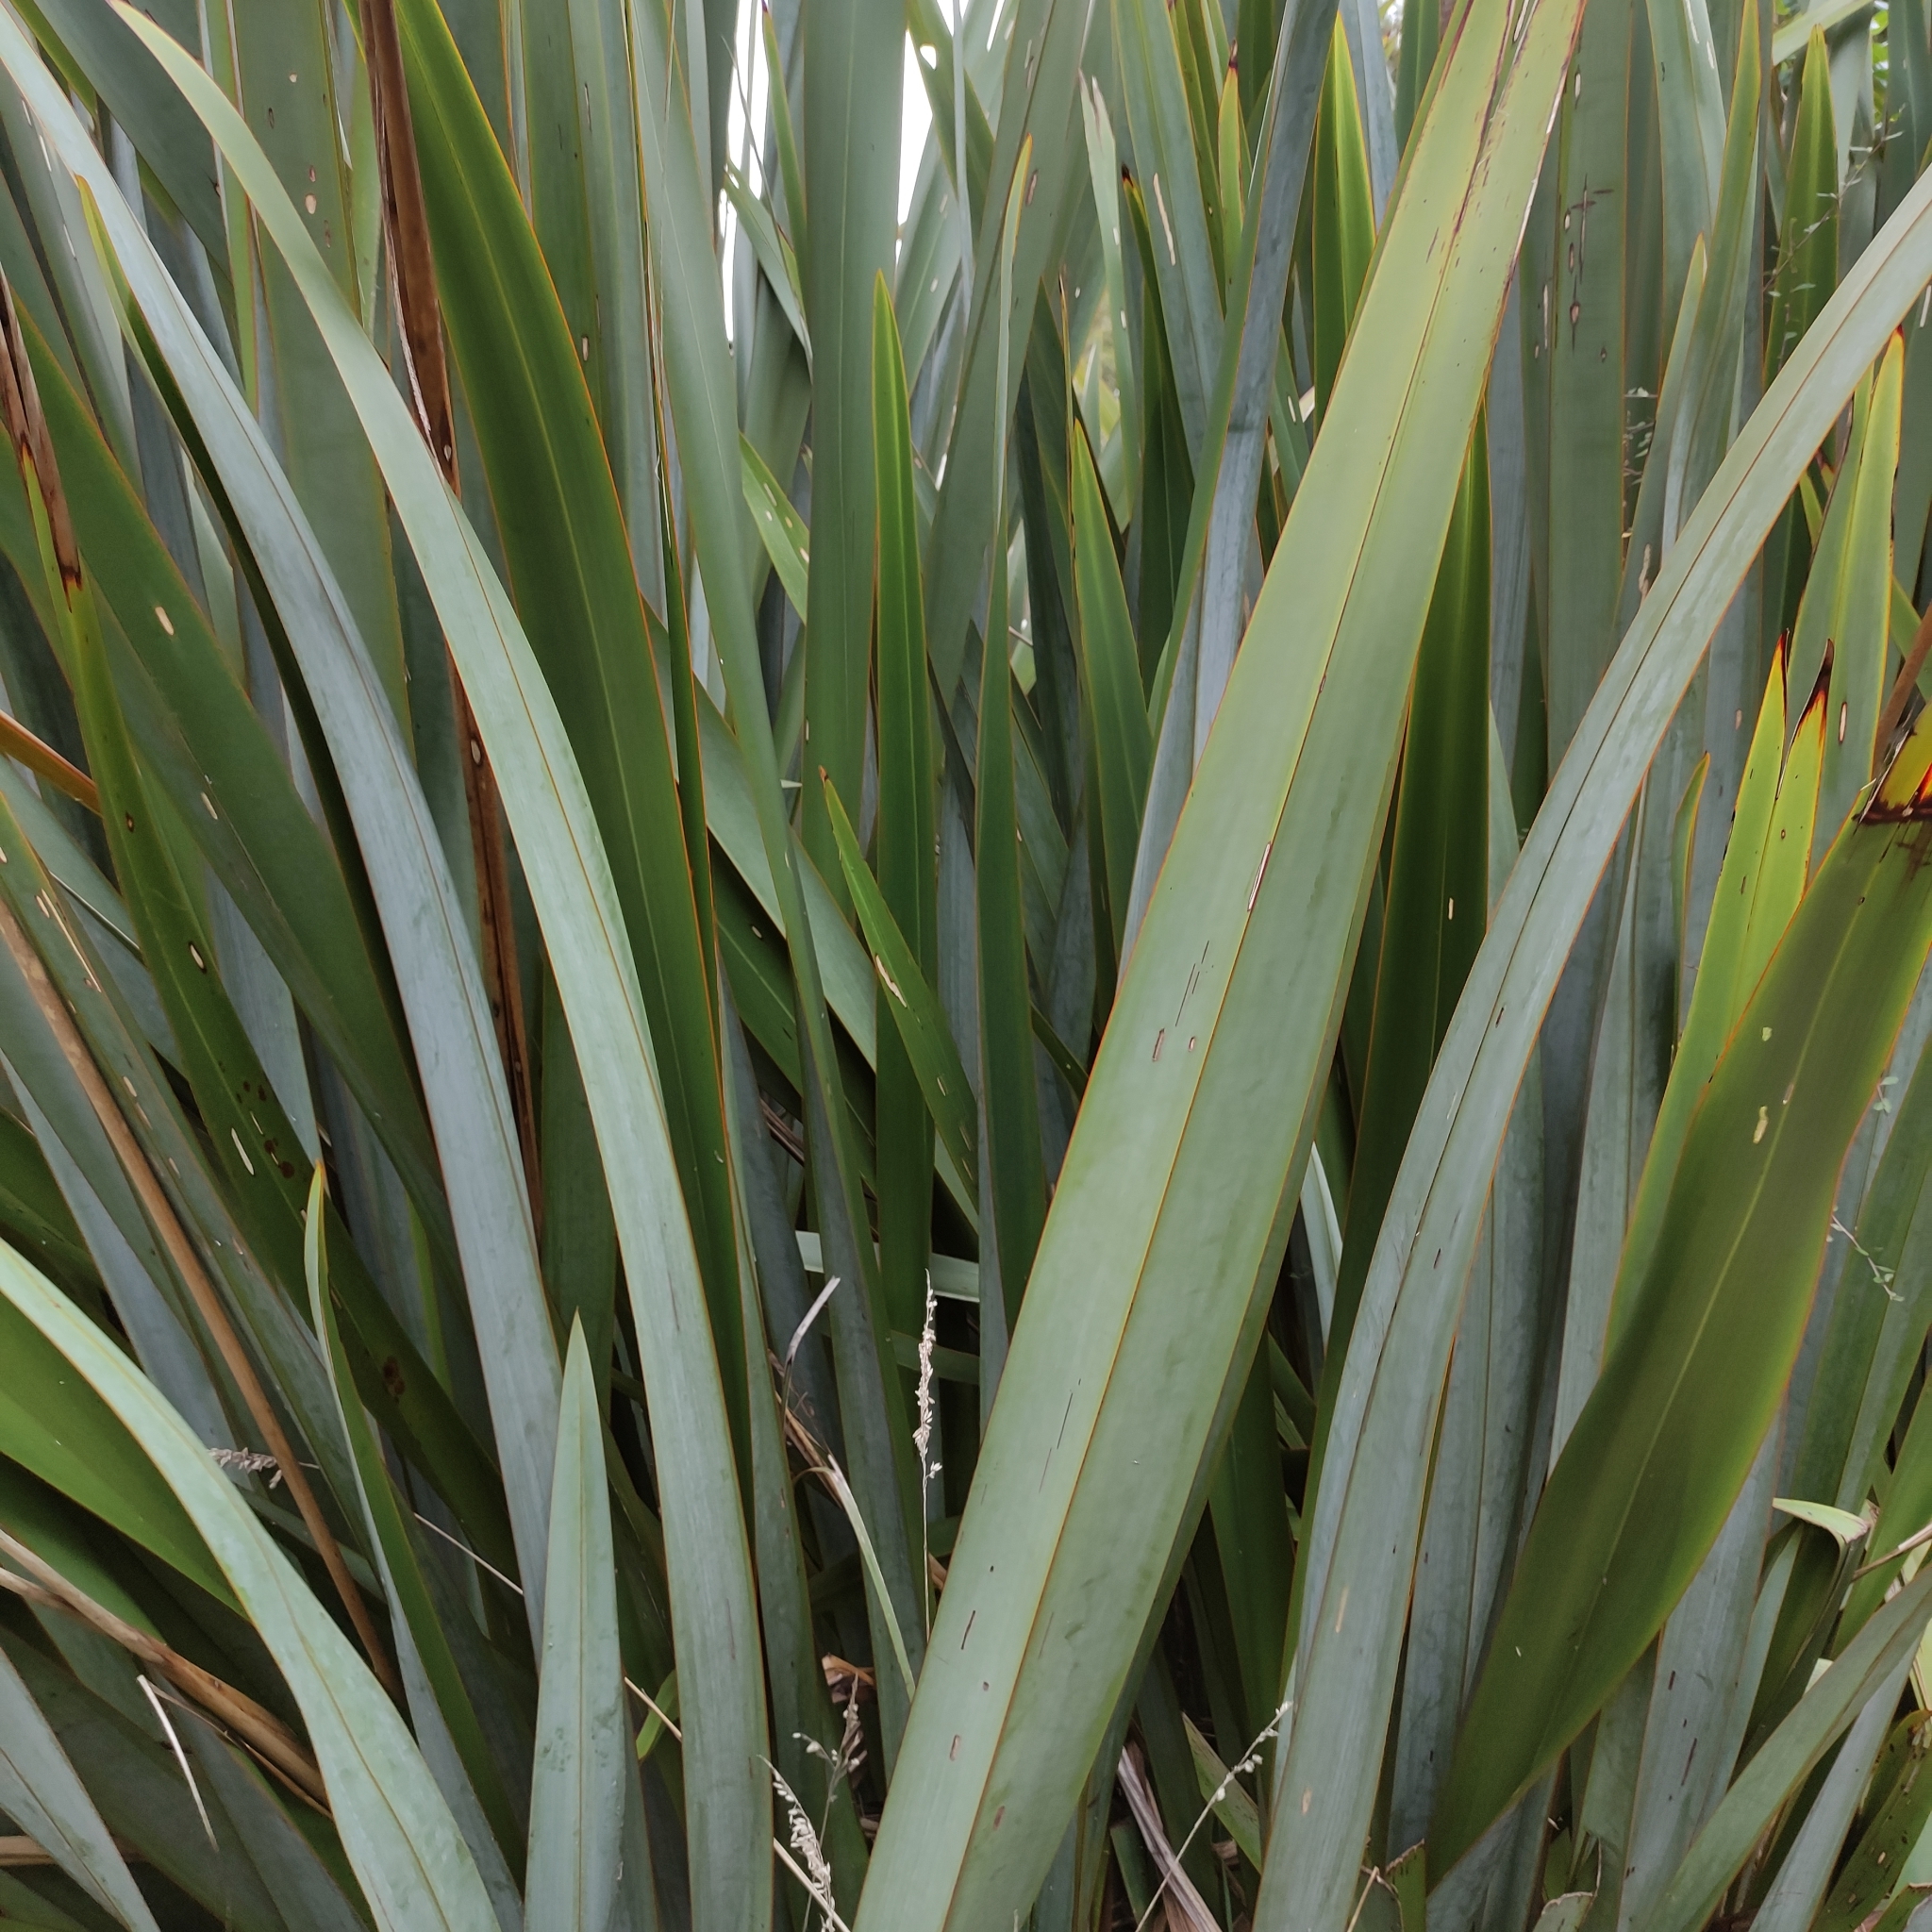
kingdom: Plantae
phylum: Tracheophyta
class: Liliopsida
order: Asparagales
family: Asphodelaceae
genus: Phormium
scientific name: Phormium tenax
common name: New zealand flax
